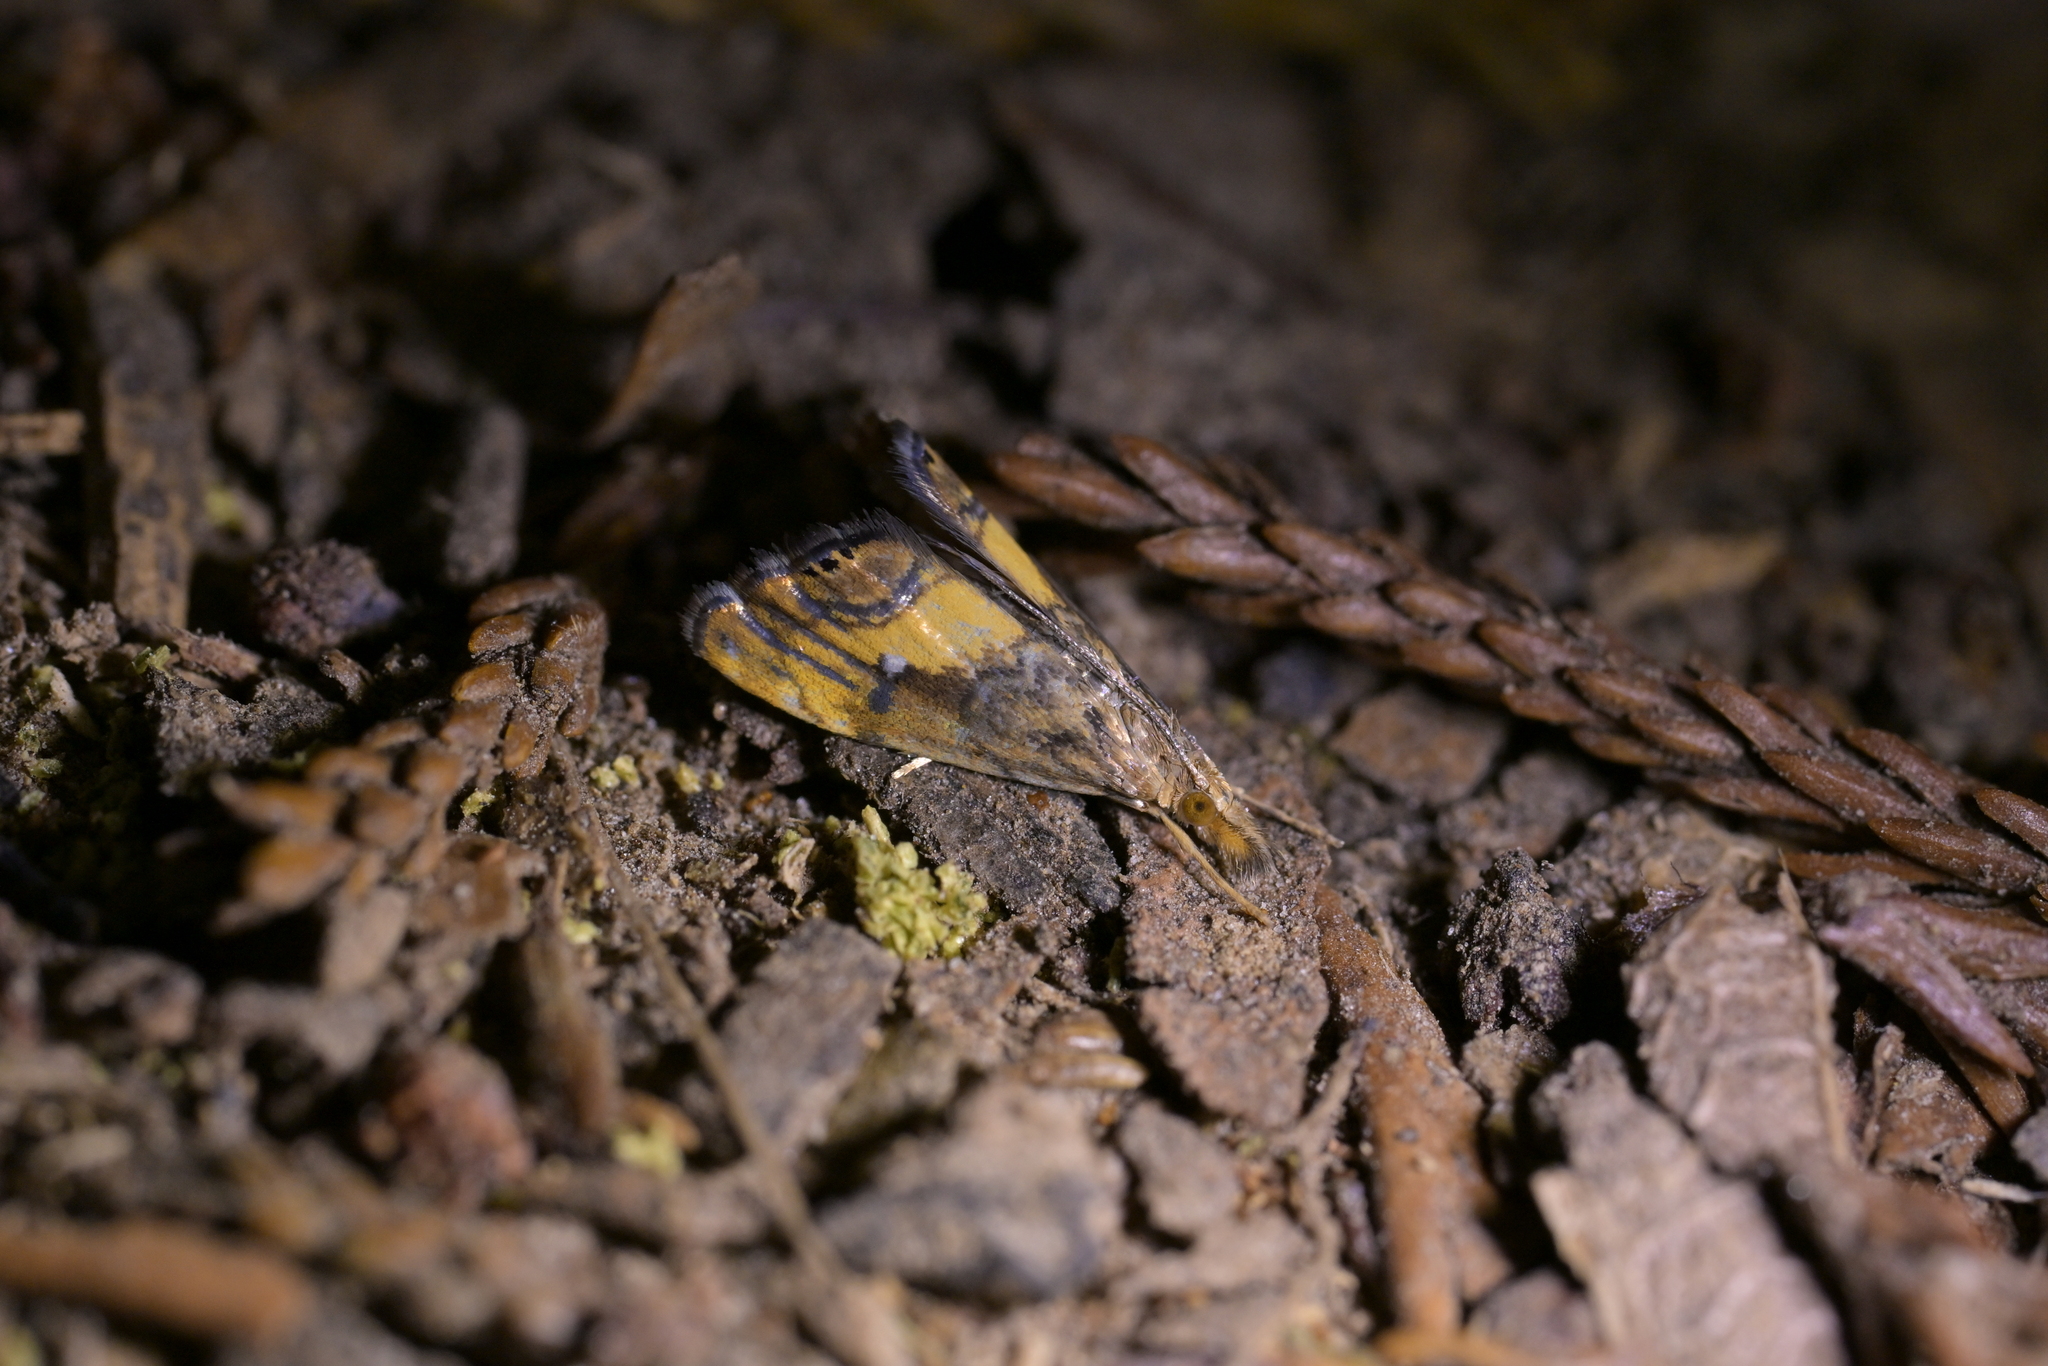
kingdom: Animalia
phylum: Arthropoda
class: Insecta
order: Lepidoptera
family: Crambidae
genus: Glaucocharis
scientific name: Glaucocharis chrysochyta
